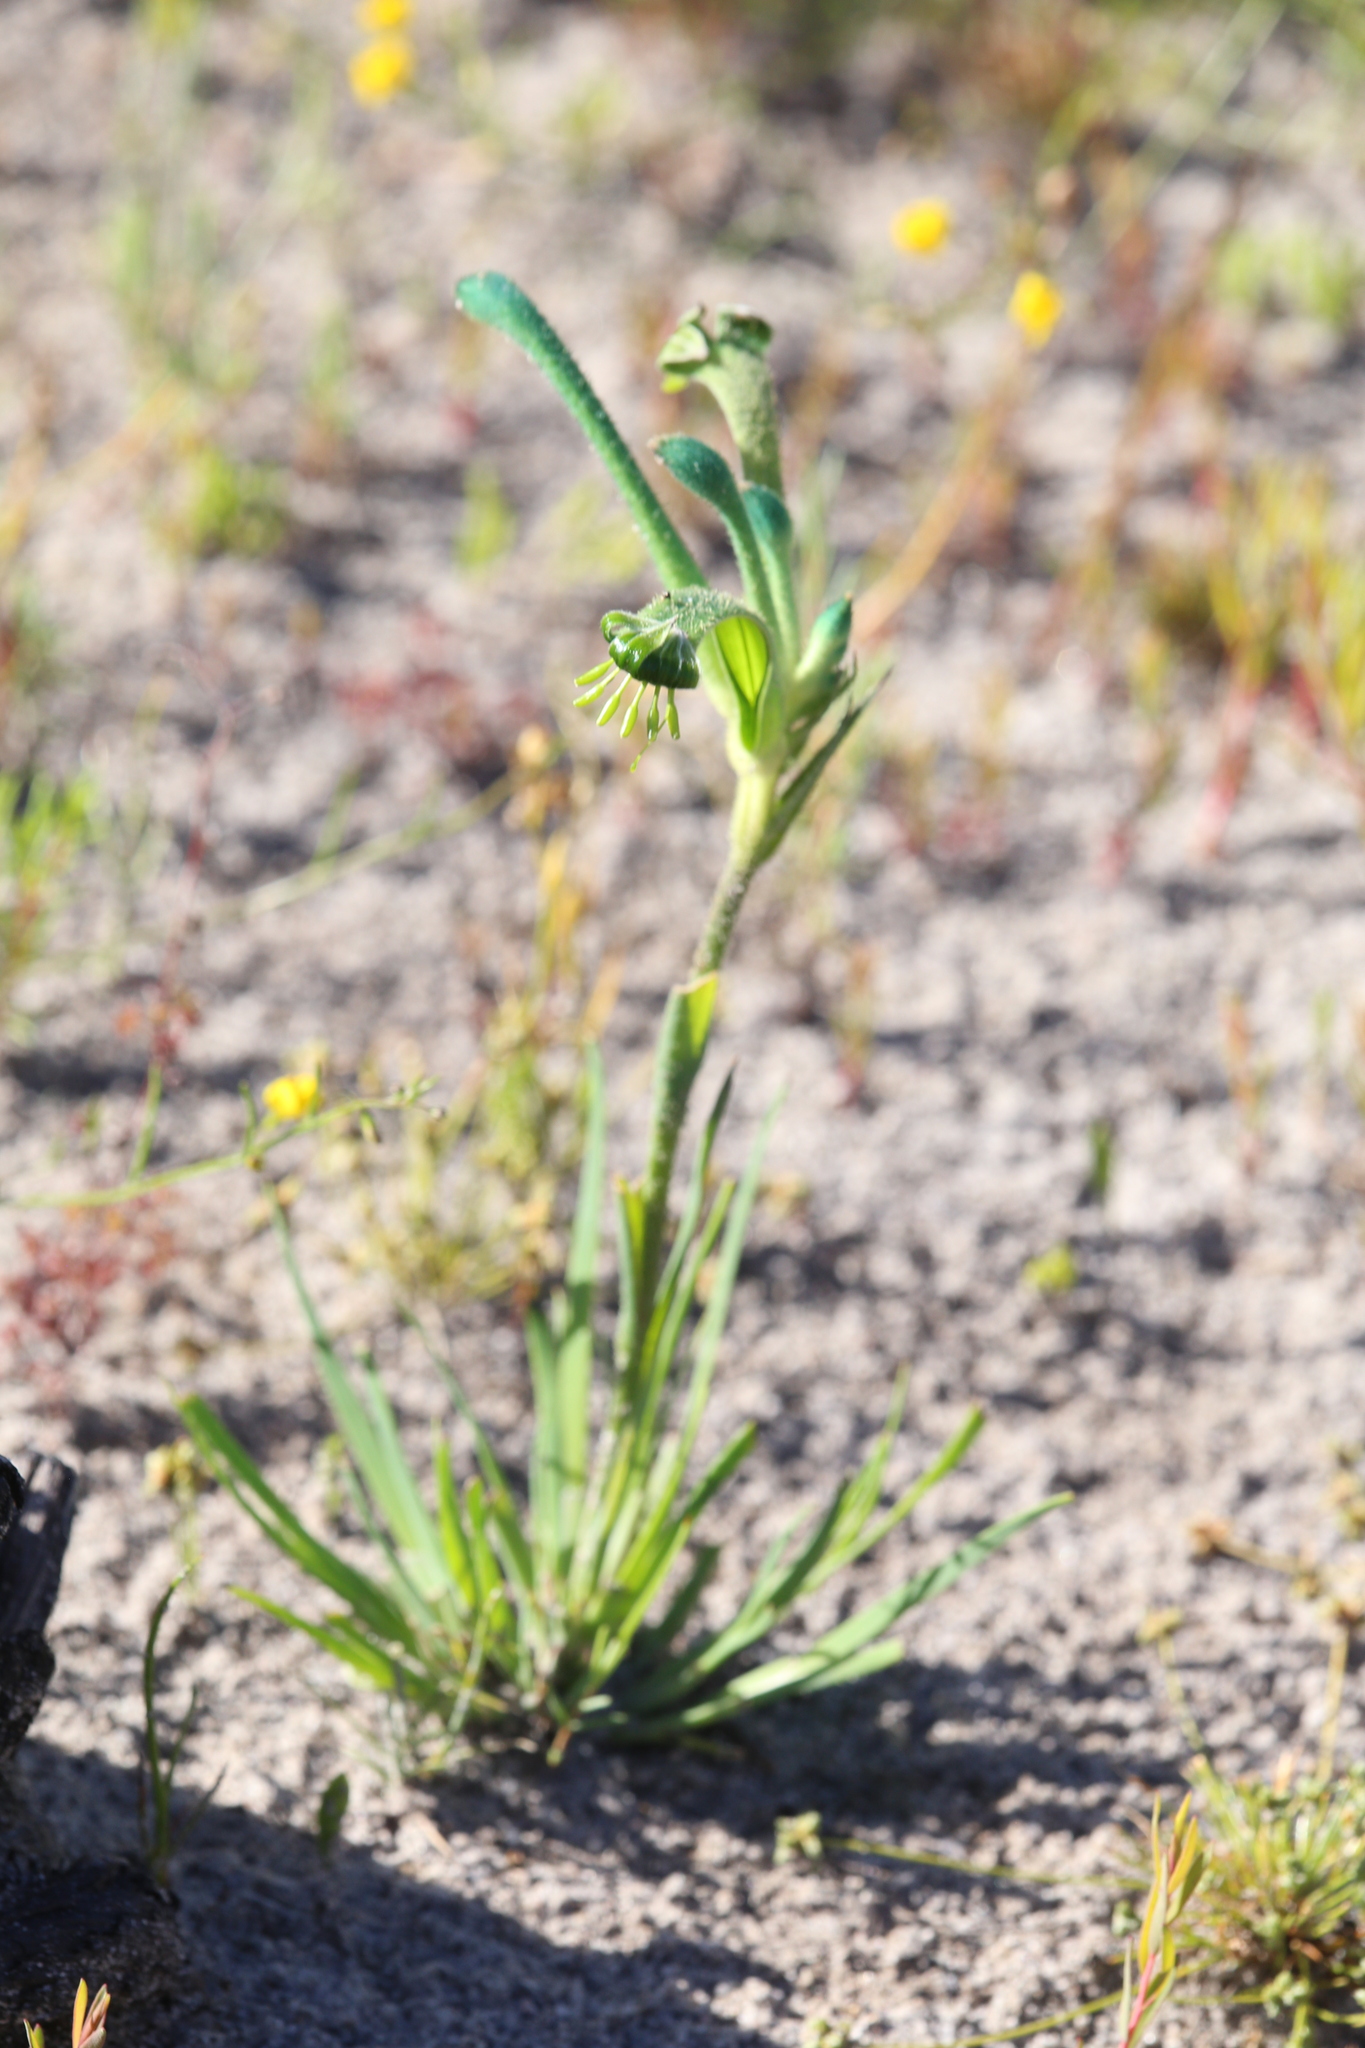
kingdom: Plantae
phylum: Tracheophyta
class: Liliopsida
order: Commelinales
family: Haemodoraceae
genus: Anigozanthos
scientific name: Anigozanthos viridis
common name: Green kangaroo-paw
